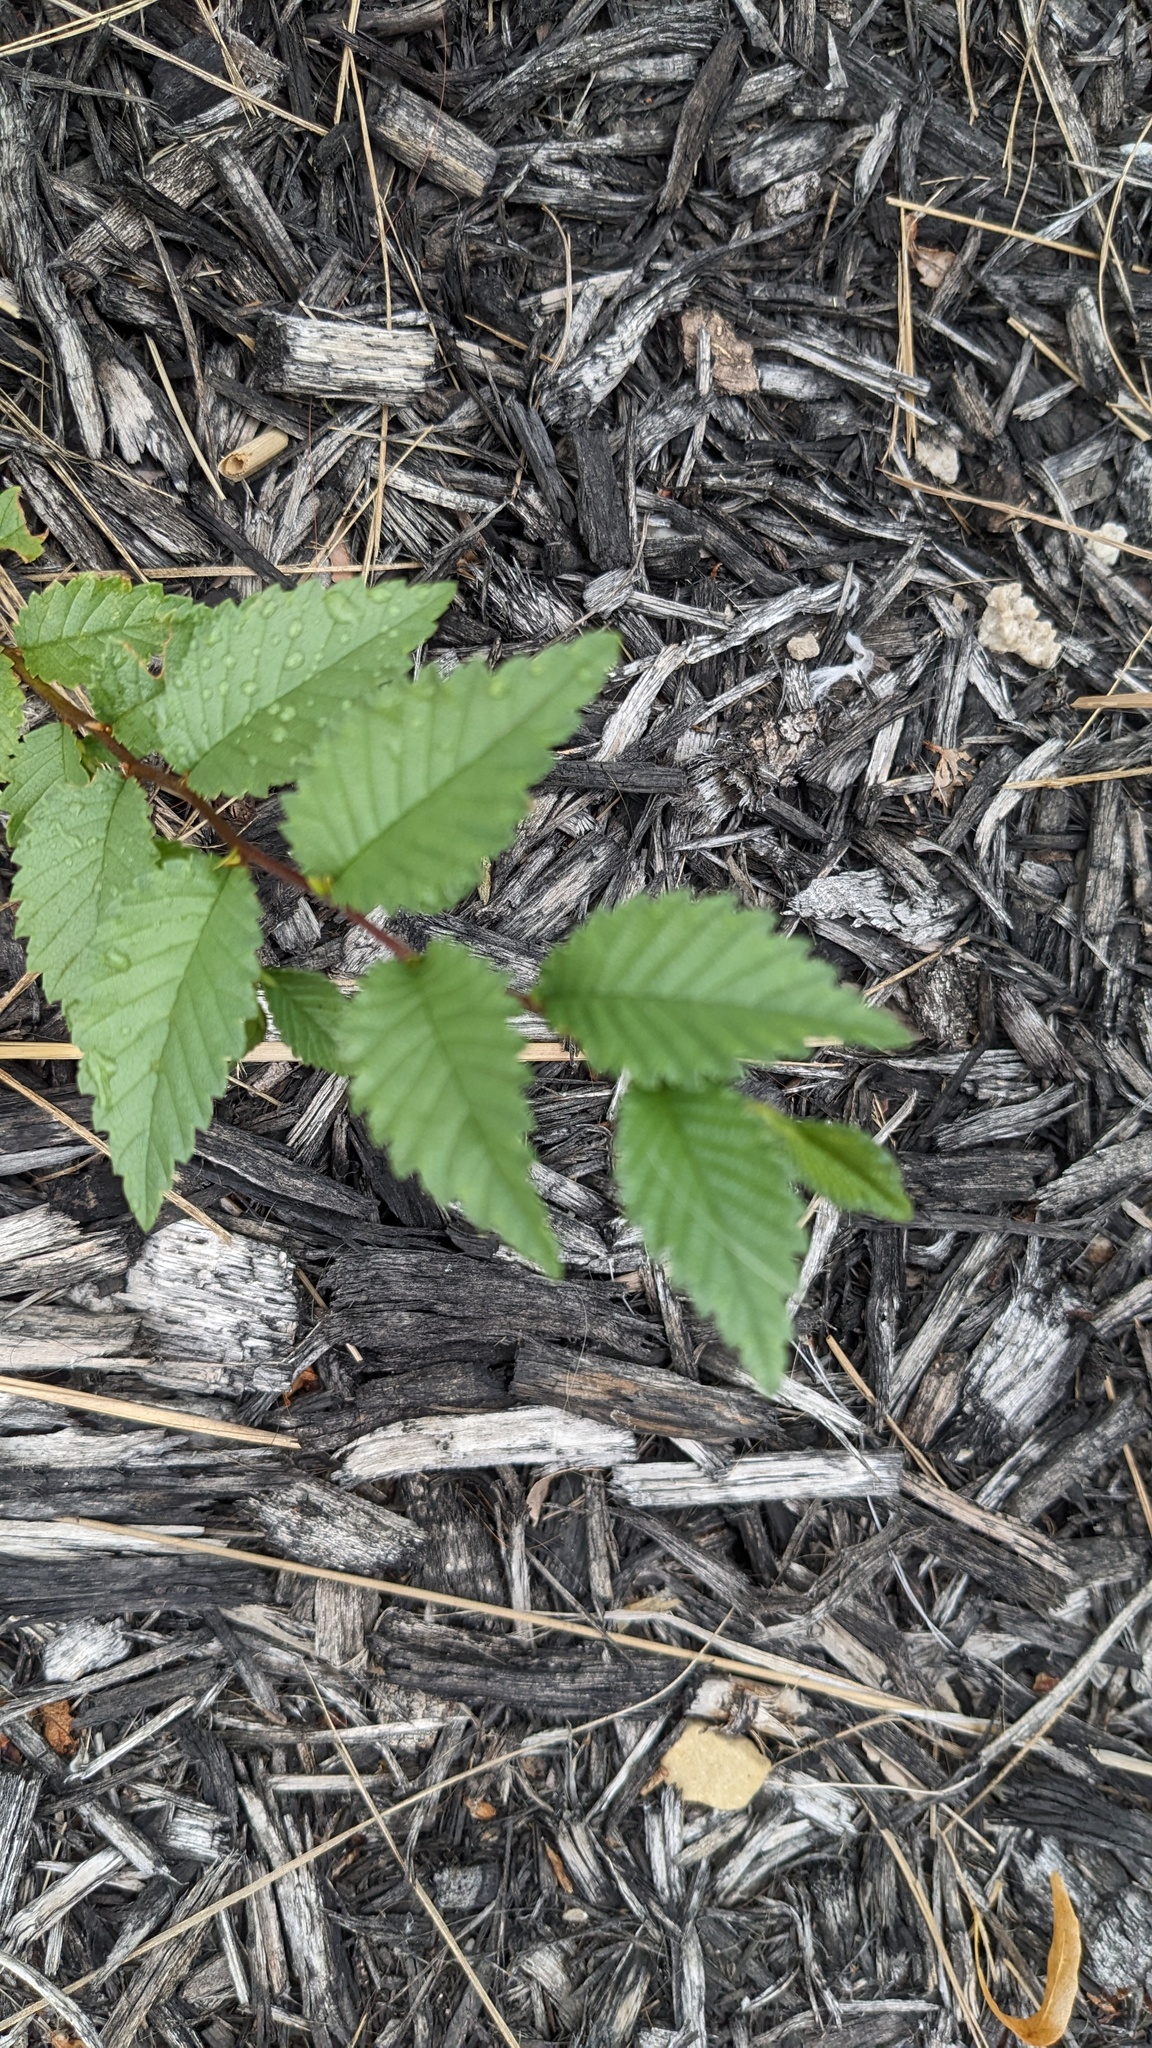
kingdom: Plantae
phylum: Tracheophyta
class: Magnoliopsida
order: Rosales
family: Ulmaceae
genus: Ulmus
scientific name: Ulmus pumila
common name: Siberian elm
